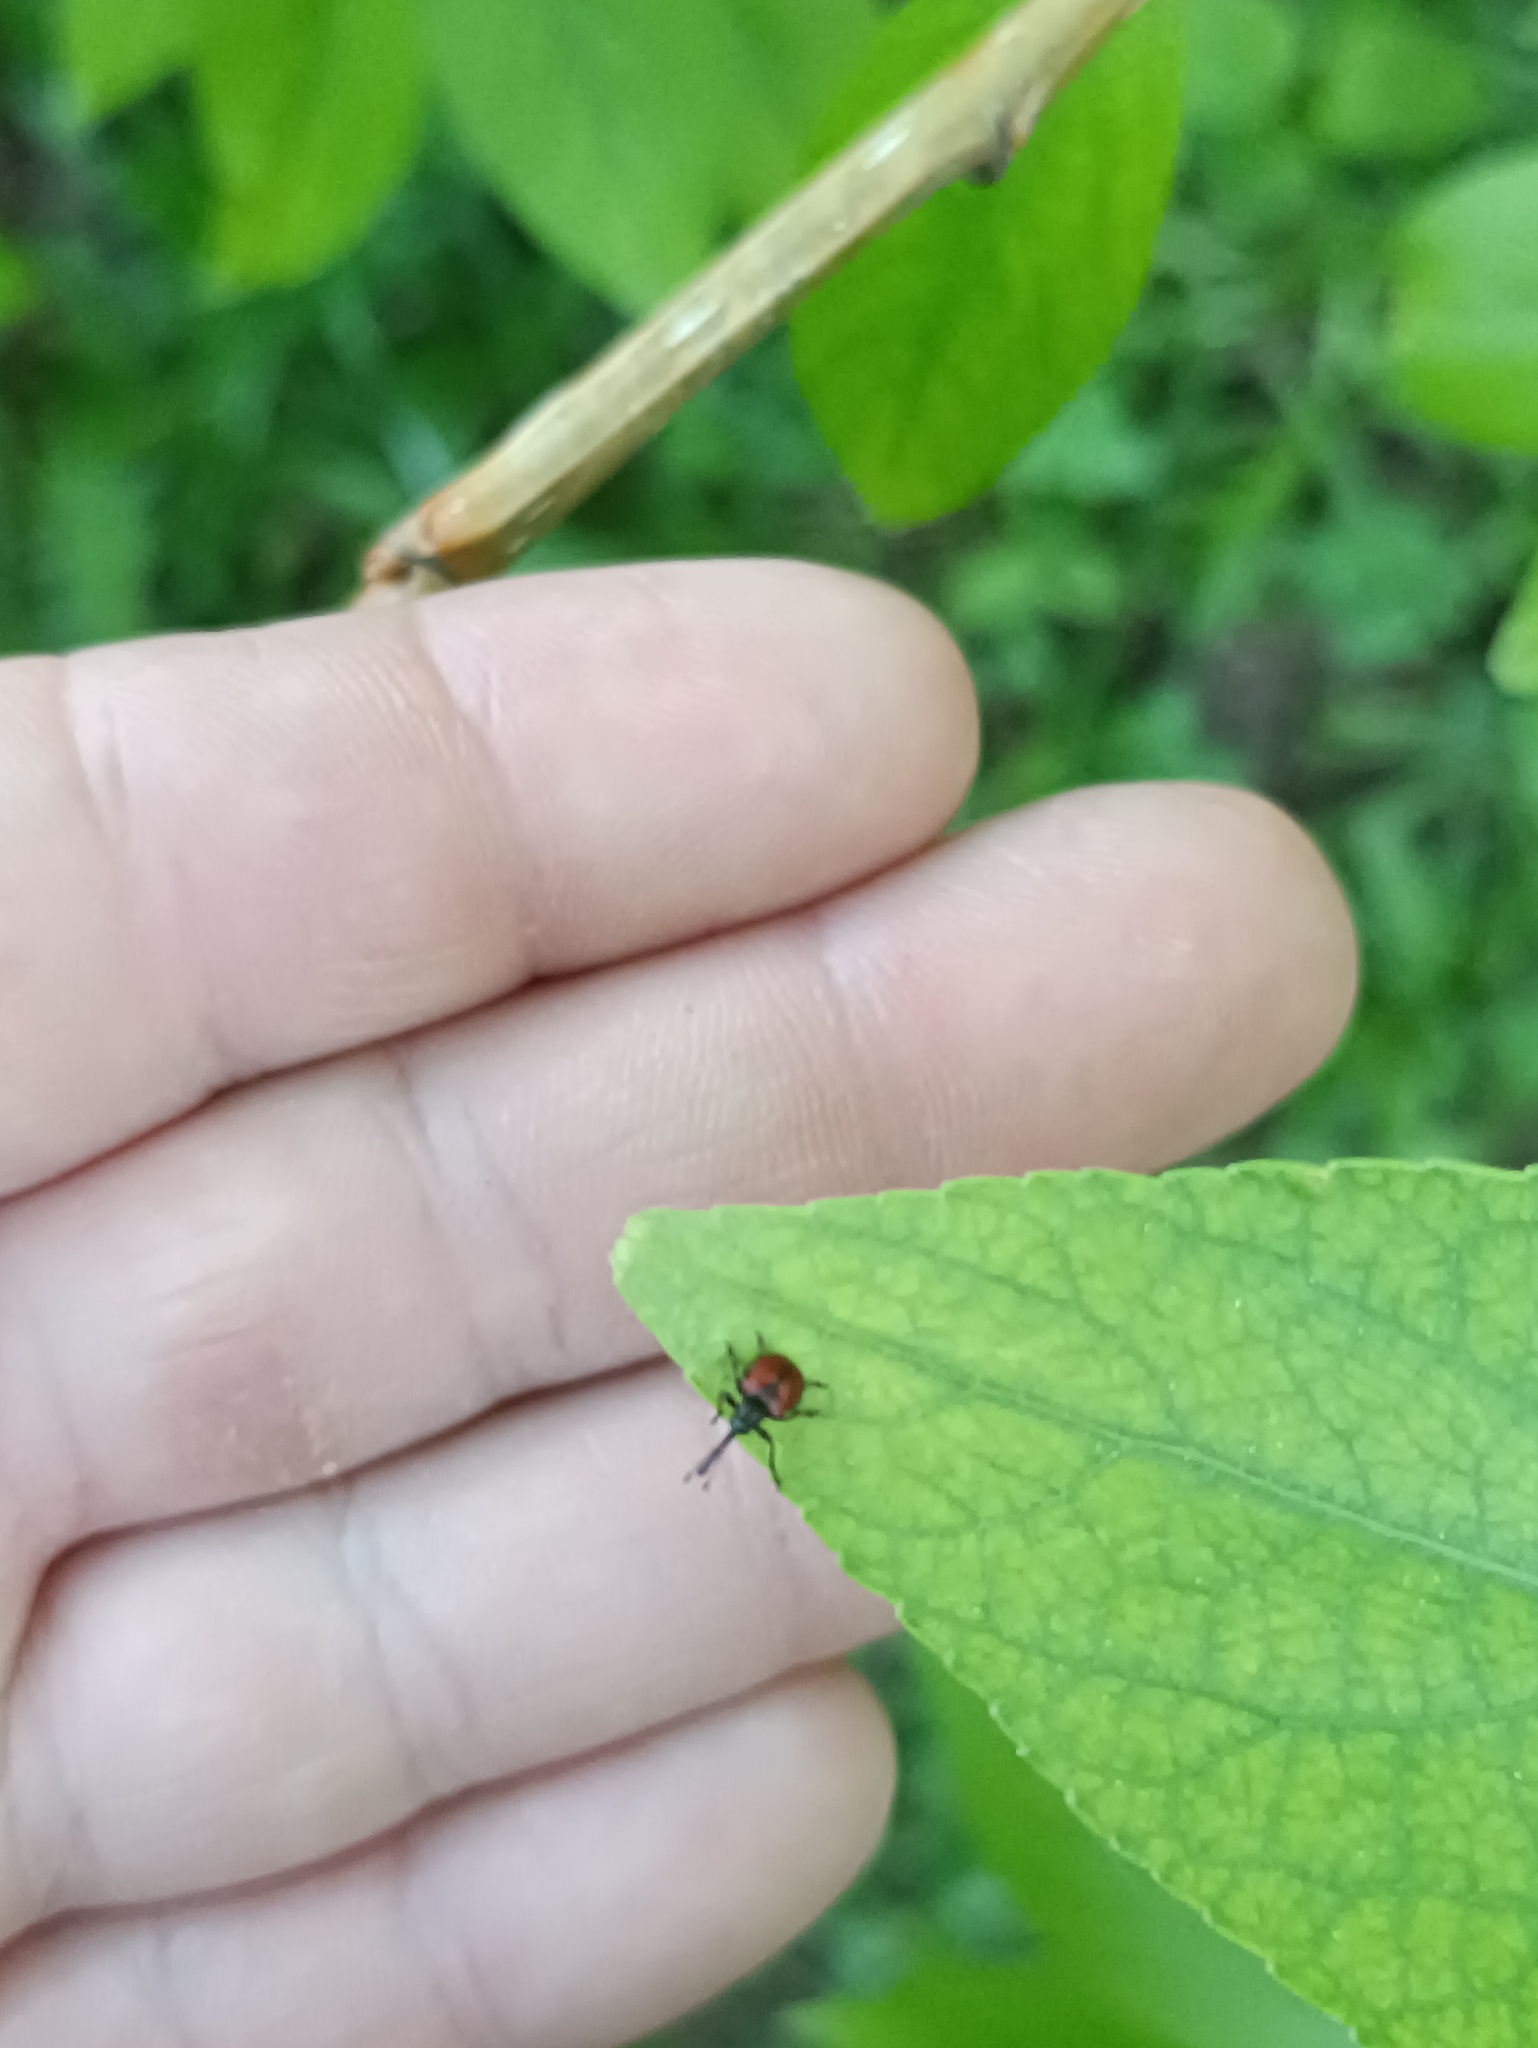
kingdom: Animalia
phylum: Arthropoda
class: Insecta
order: Coleoptera
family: Rhynchitidae
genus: Tatianaerhynchites
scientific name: Tatianaerhynchites aequatus
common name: Apple fruit rhynchites
